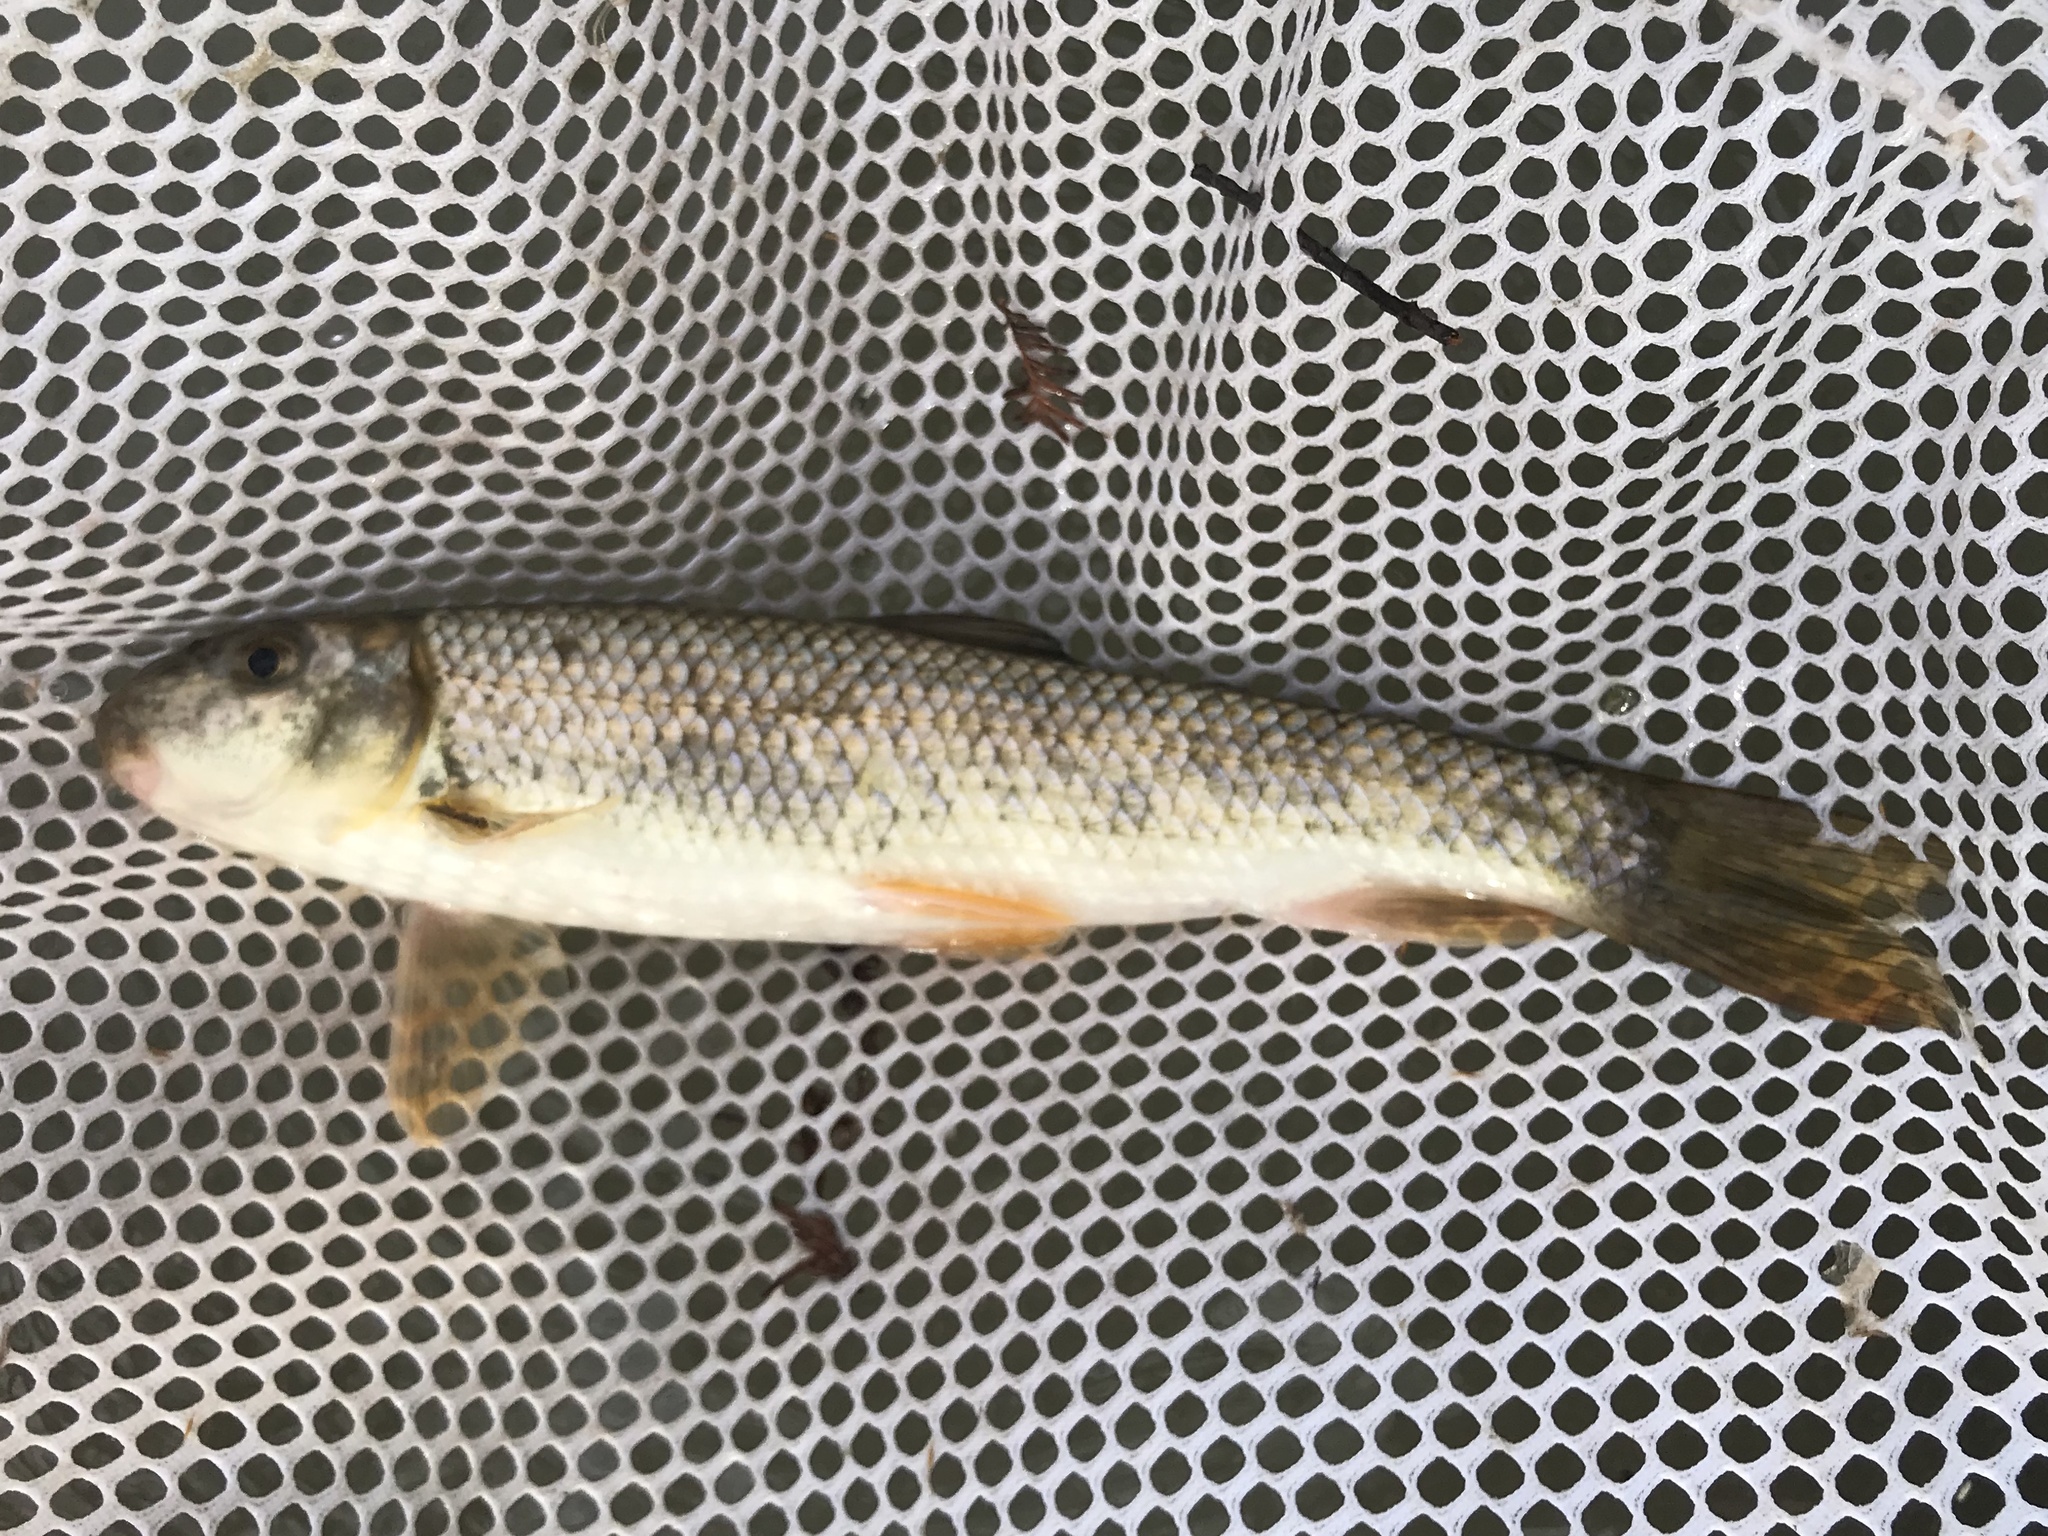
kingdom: Animalia
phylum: Chordata
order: Cypriniformes
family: Catostomidae
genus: Moxostoma
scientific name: Moxostoma congestum
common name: Gray redhorse
